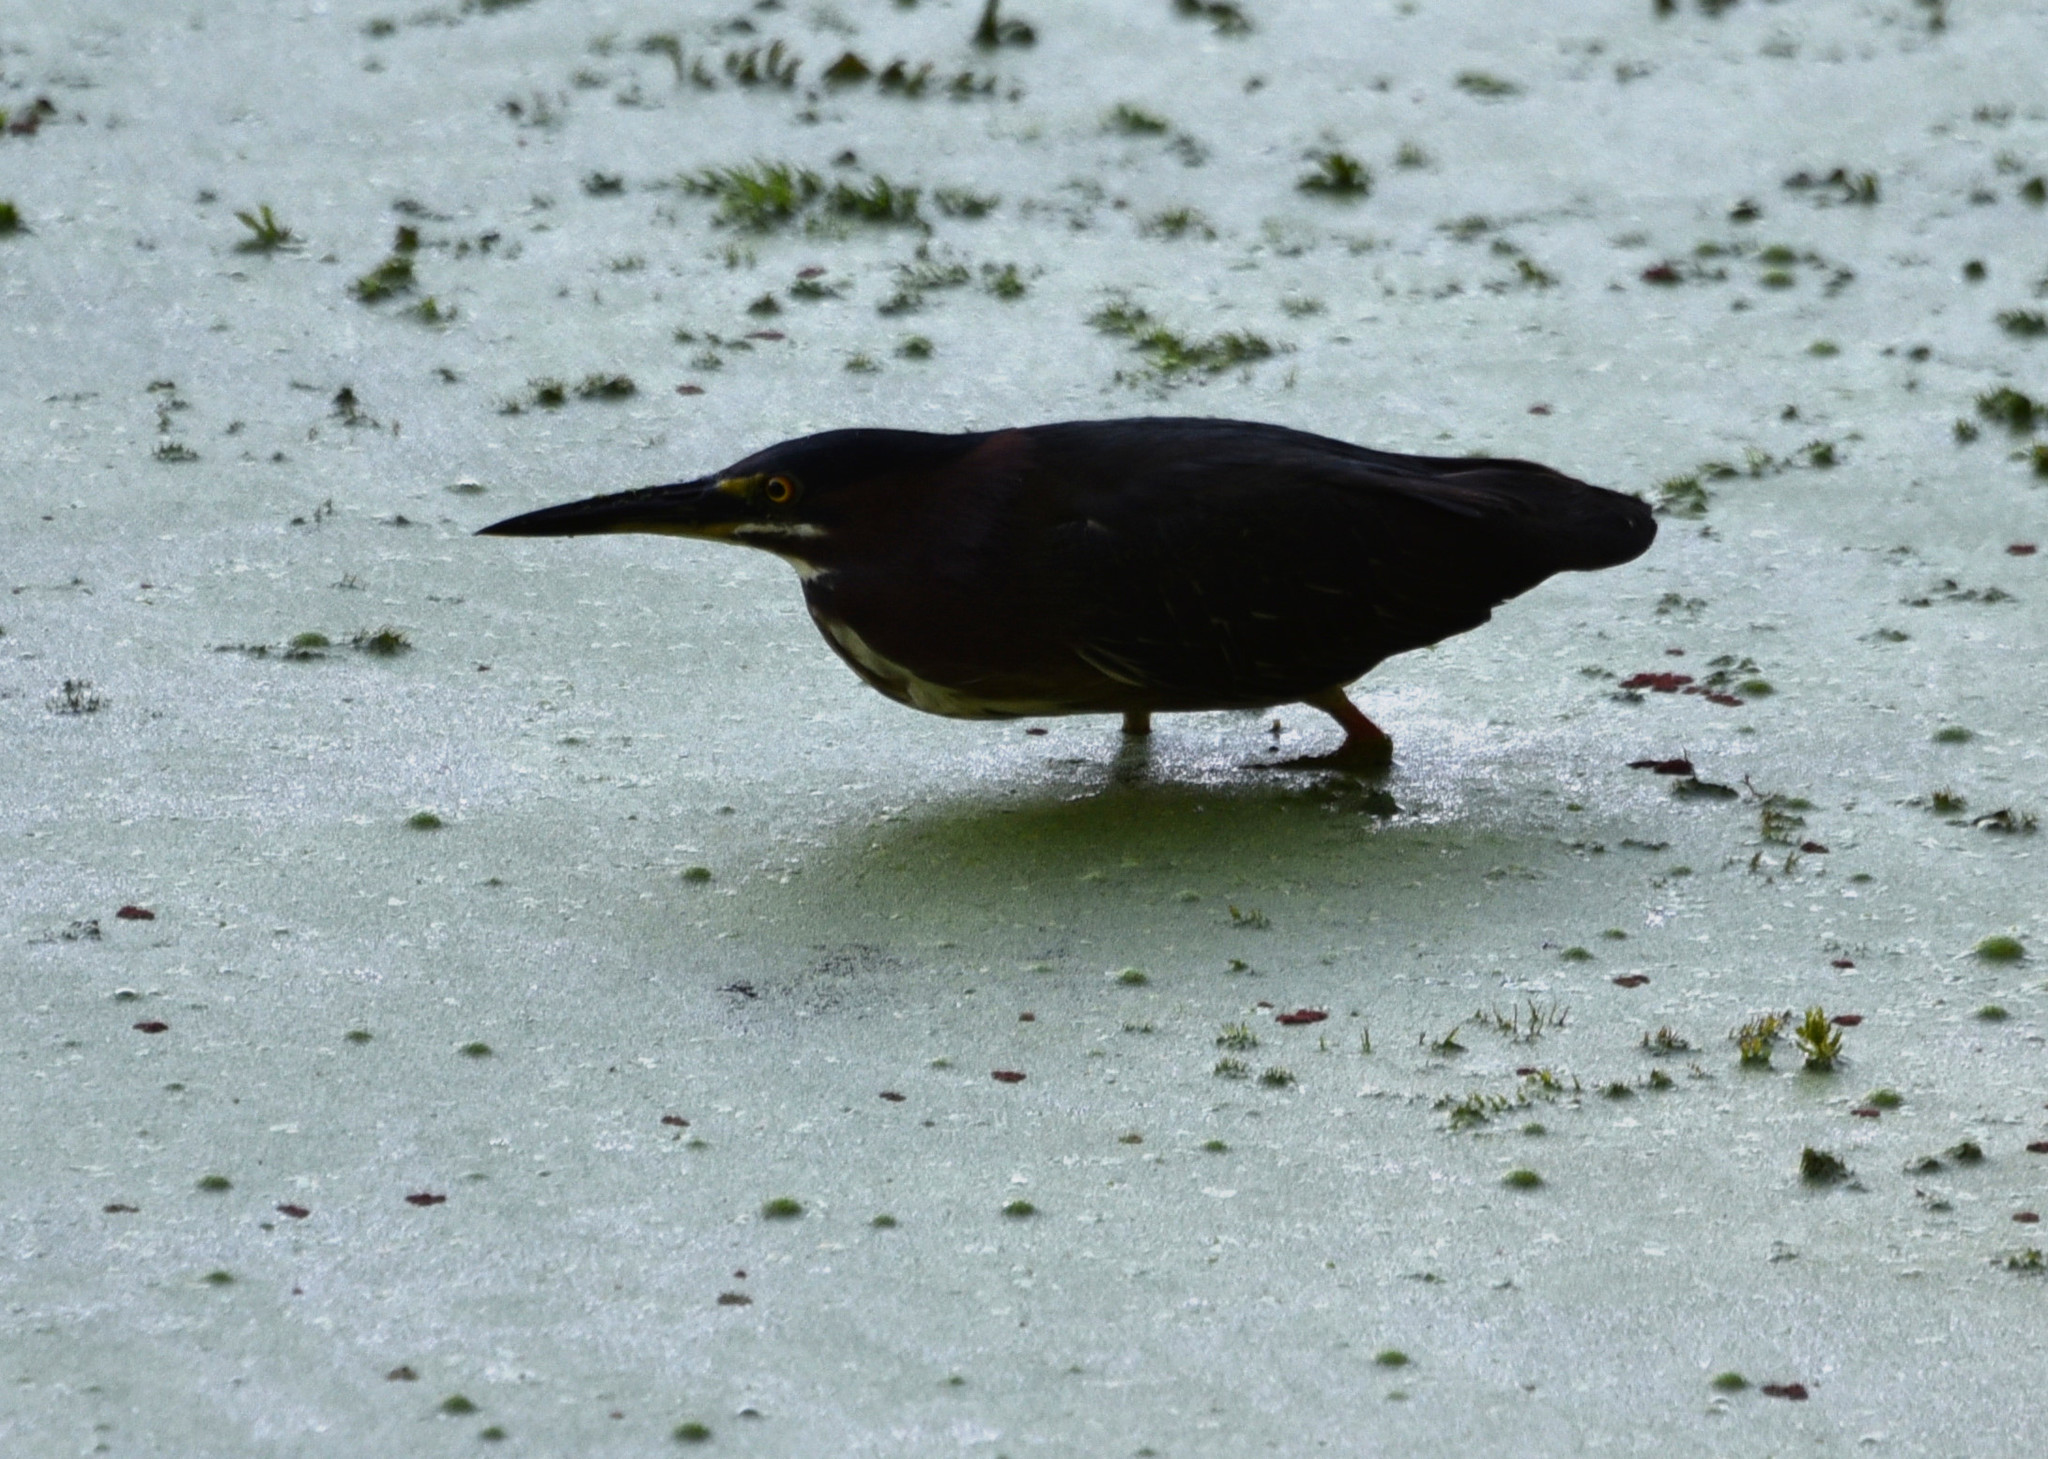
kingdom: Animalia
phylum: Chordata
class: Aves
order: Pelecaniformes
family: Ardeidae
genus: Butorides
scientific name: Butorides virescens
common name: Green heron
